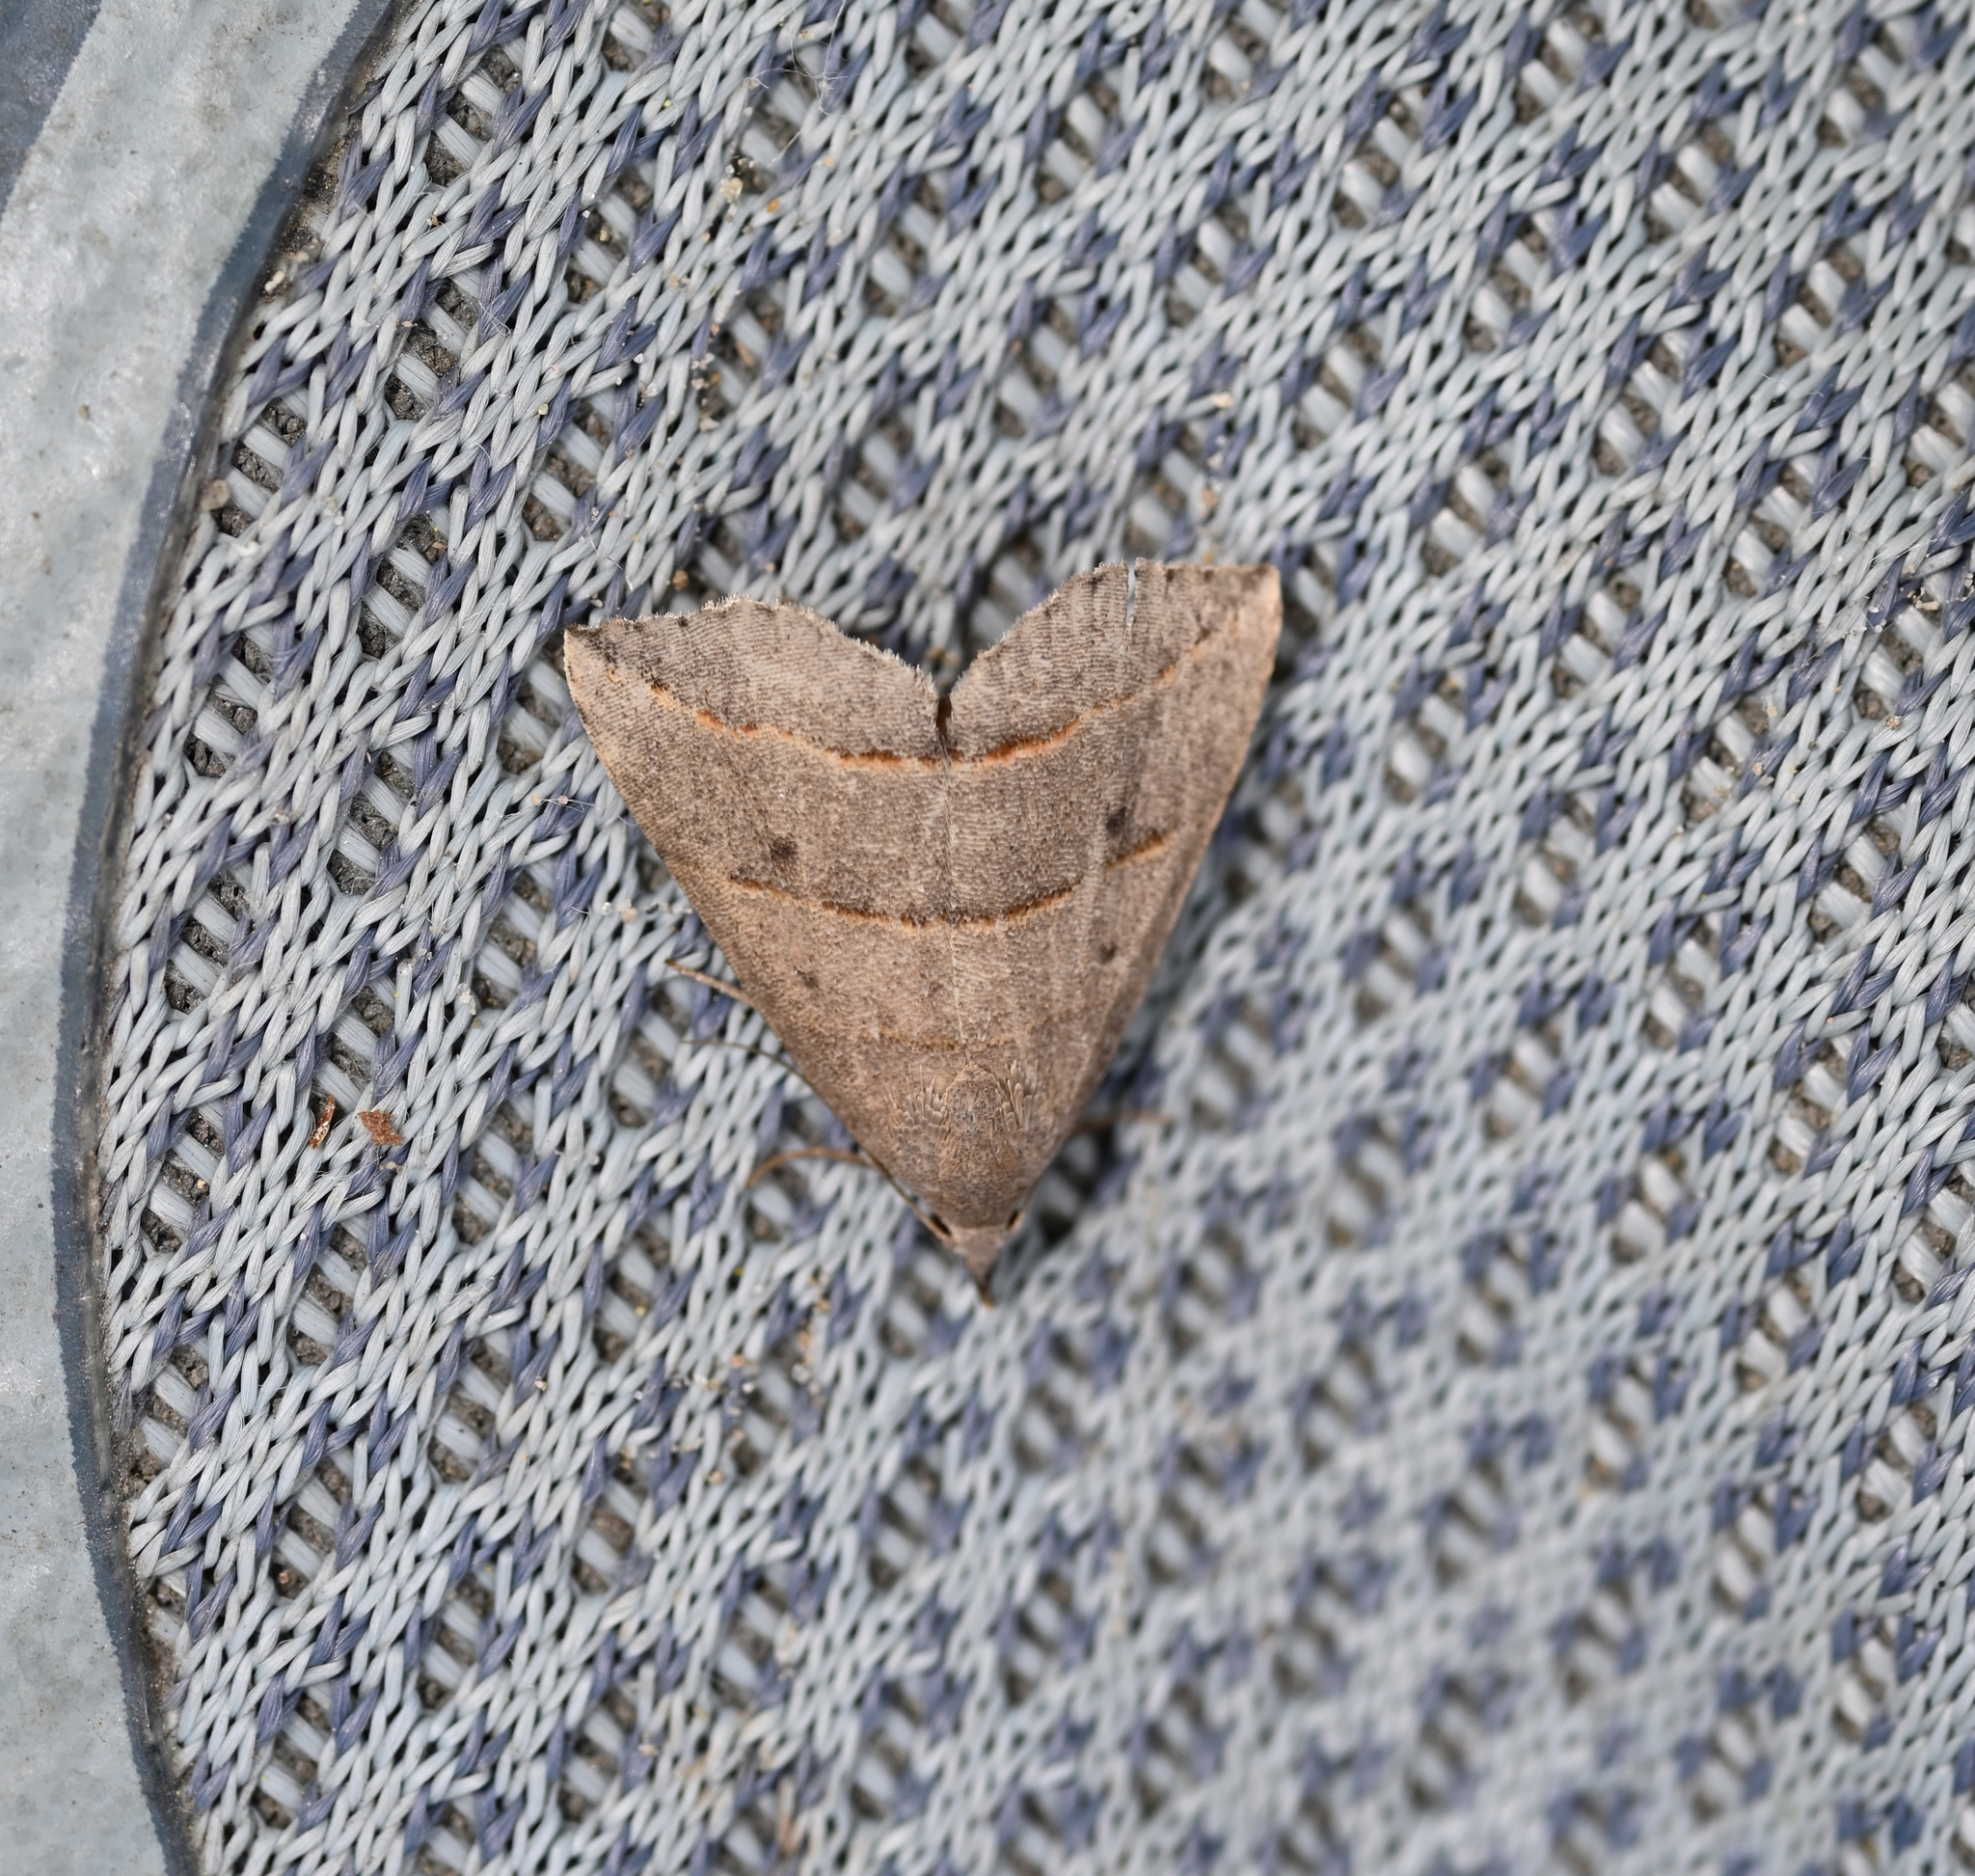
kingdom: Animalia
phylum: Arthropoda
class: Insecta
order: Lepidoptera
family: Erebidae
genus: Colobochyla
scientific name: Colobochyla interpuncta
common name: Yellow-lined owlet
